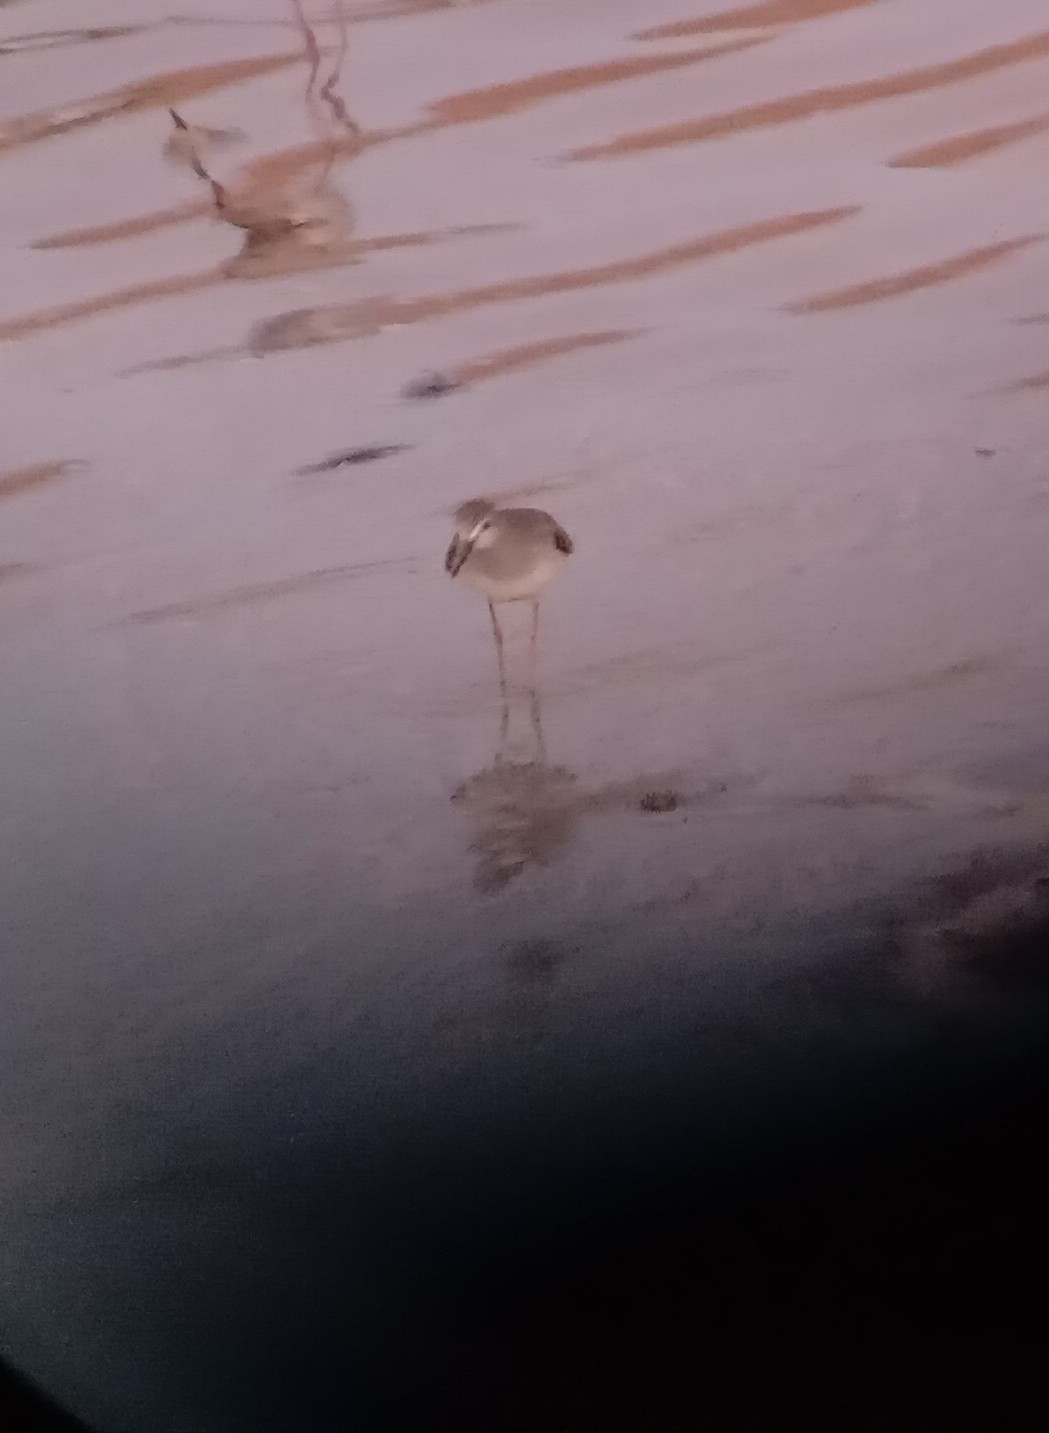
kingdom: Animalia
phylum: Chordata
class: Aves
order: Charadriiformes
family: Scolopacidae
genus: Tringa
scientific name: Tringa flavipes
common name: Lesser yellowlegs
